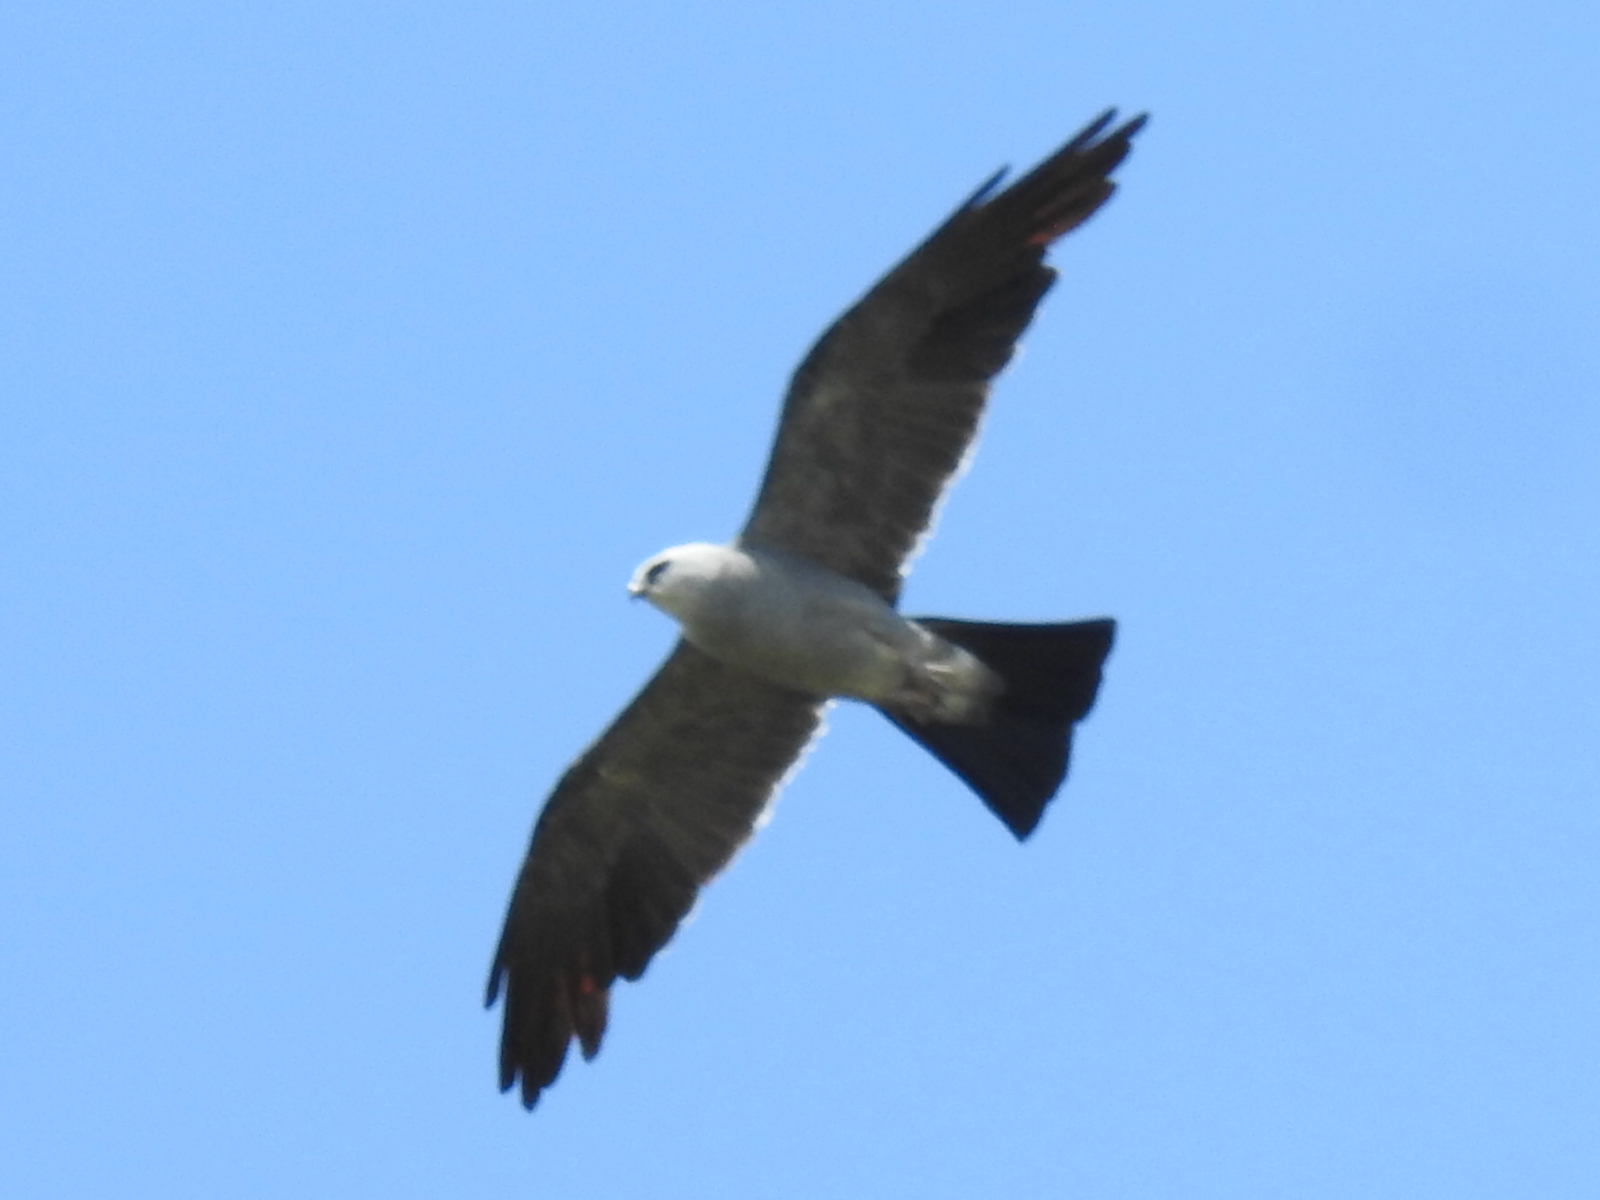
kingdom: Animalia
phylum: Chordata
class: Aves
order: Accipitriformes
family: Accipitridae
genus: Ictinia
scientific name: Ictinia mississippiensis
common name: Mississippi kite
